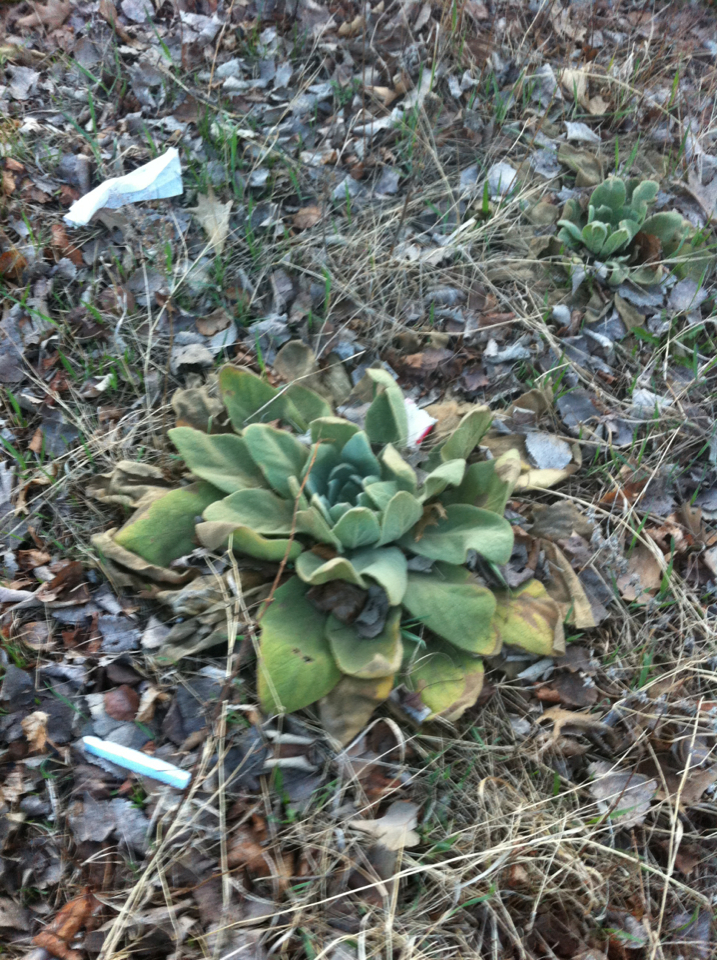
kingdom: Plantae
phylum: Tracheophyta
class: Magnoliopsida
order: Lamiales
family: Scrophulariaceae
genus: Verbascum
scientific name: Verbascum thapsus
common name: Common mullein
